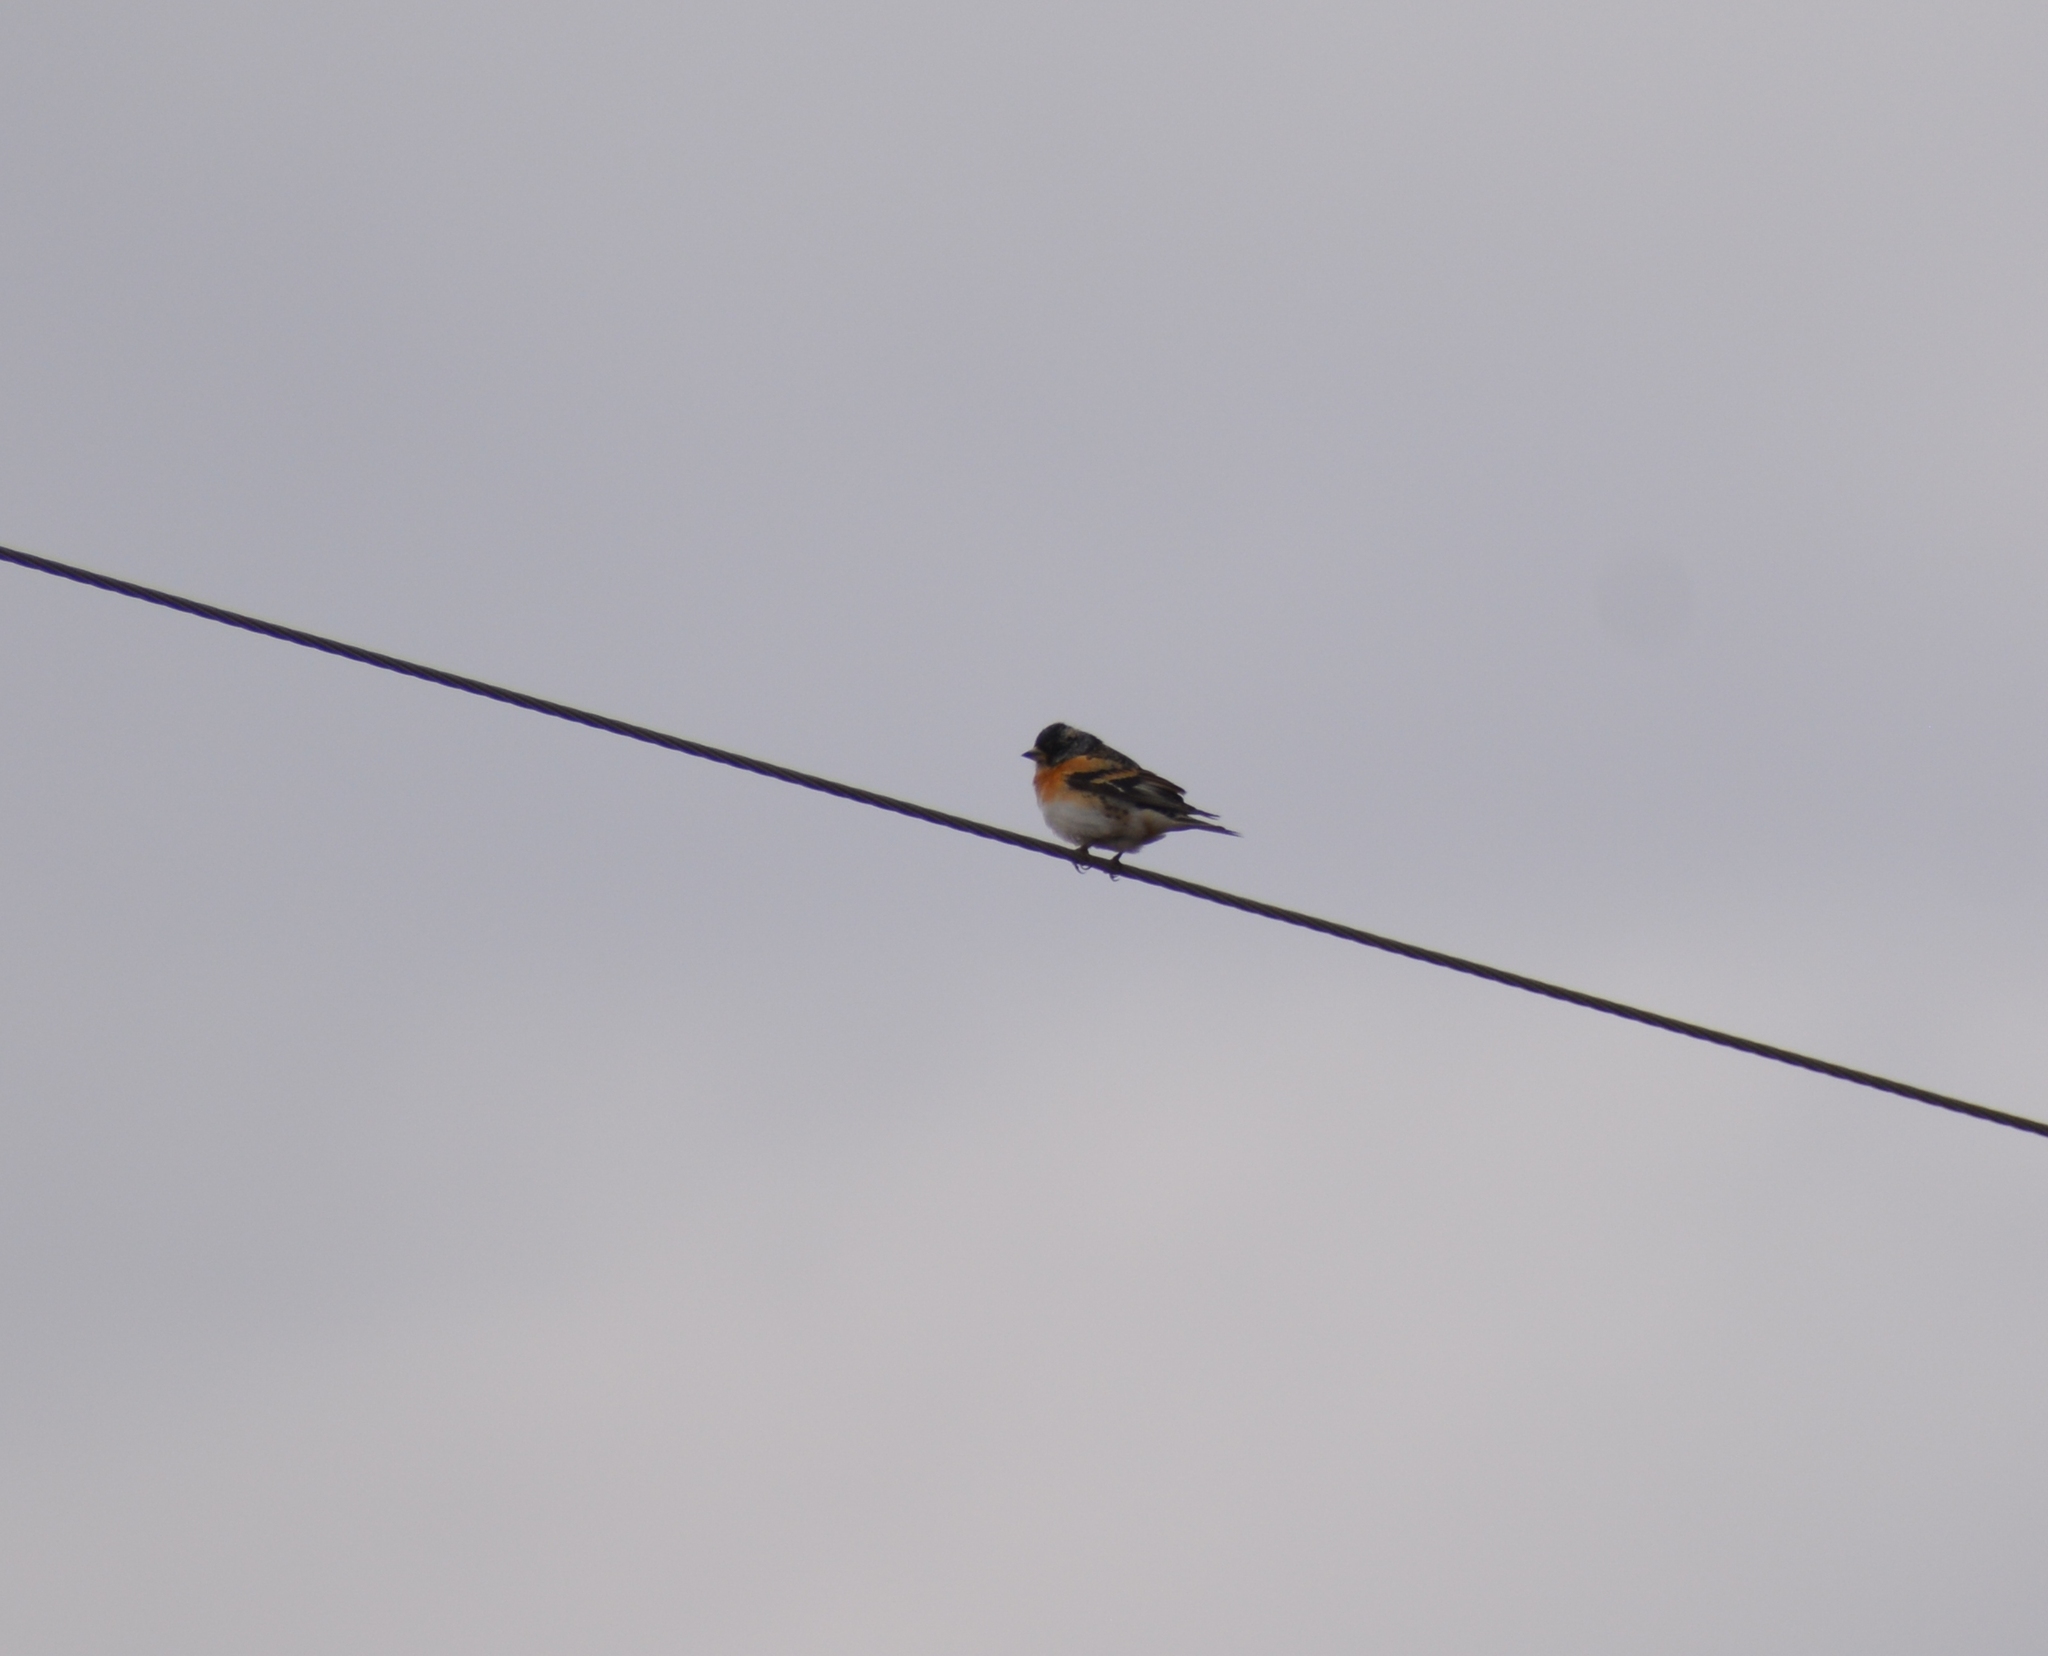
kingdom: Animalia
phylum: Chordata
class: Aves
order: Passeriformes
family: Fringillidae
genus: Fringilla
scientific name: Fringilla montifringilla
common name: Brambling
